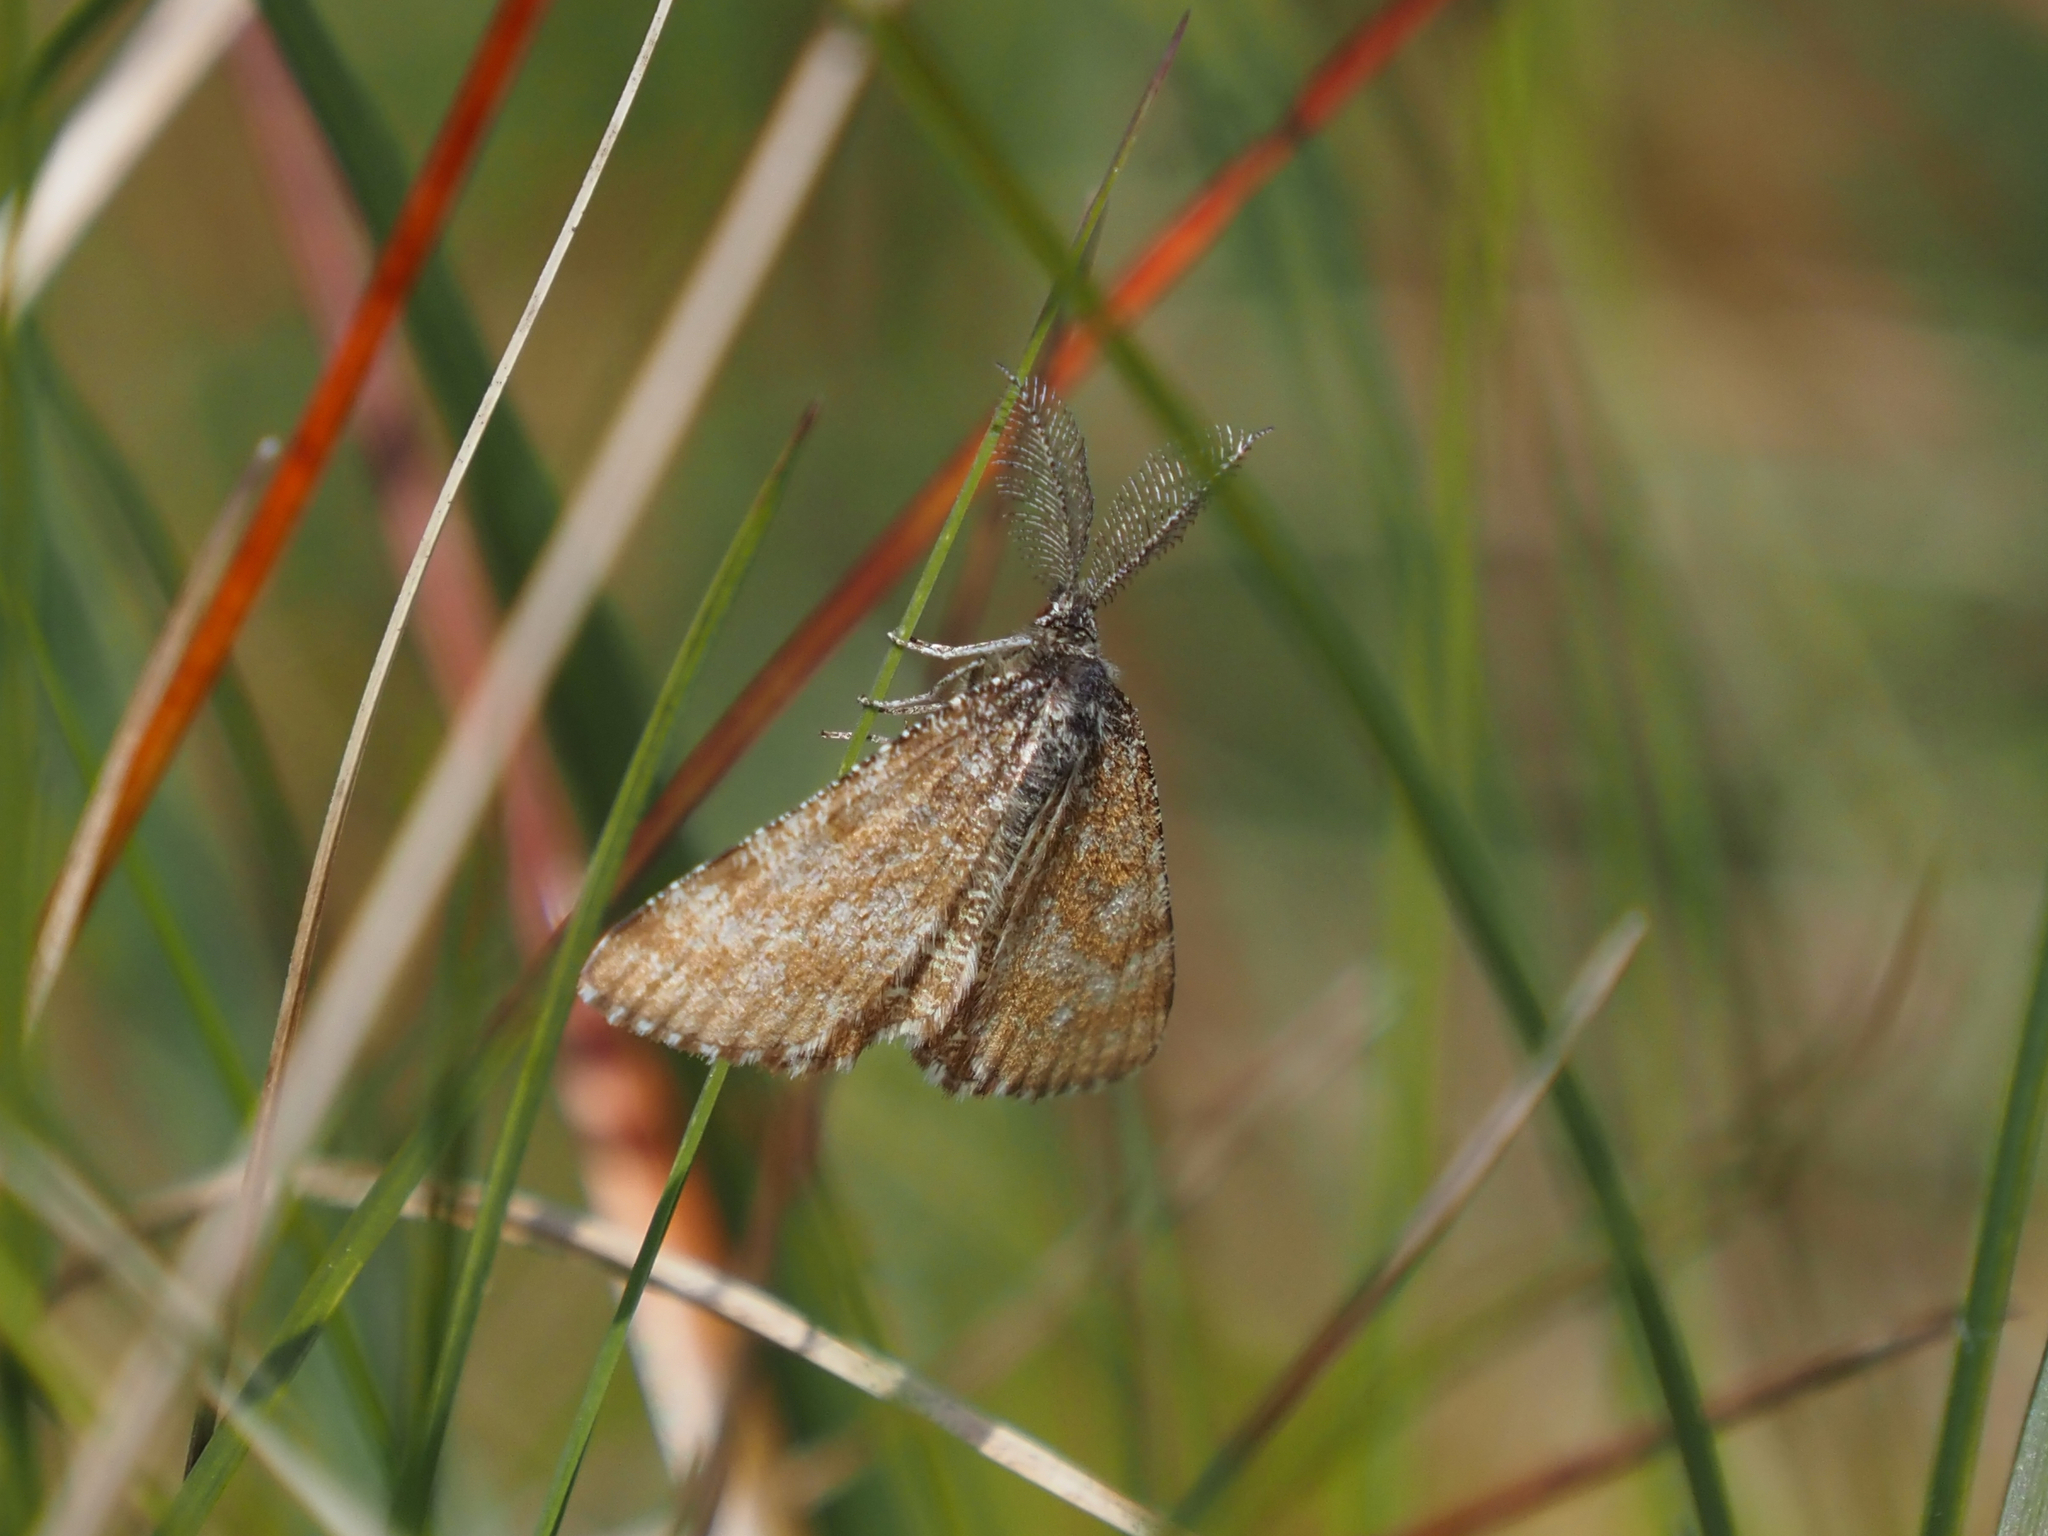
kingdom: Animalia
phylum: Arthropoda
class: Insecta
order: Lepidoptera
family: Geometridae
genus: Ematurga
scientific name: Ematurga atomaria
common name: Common heath
